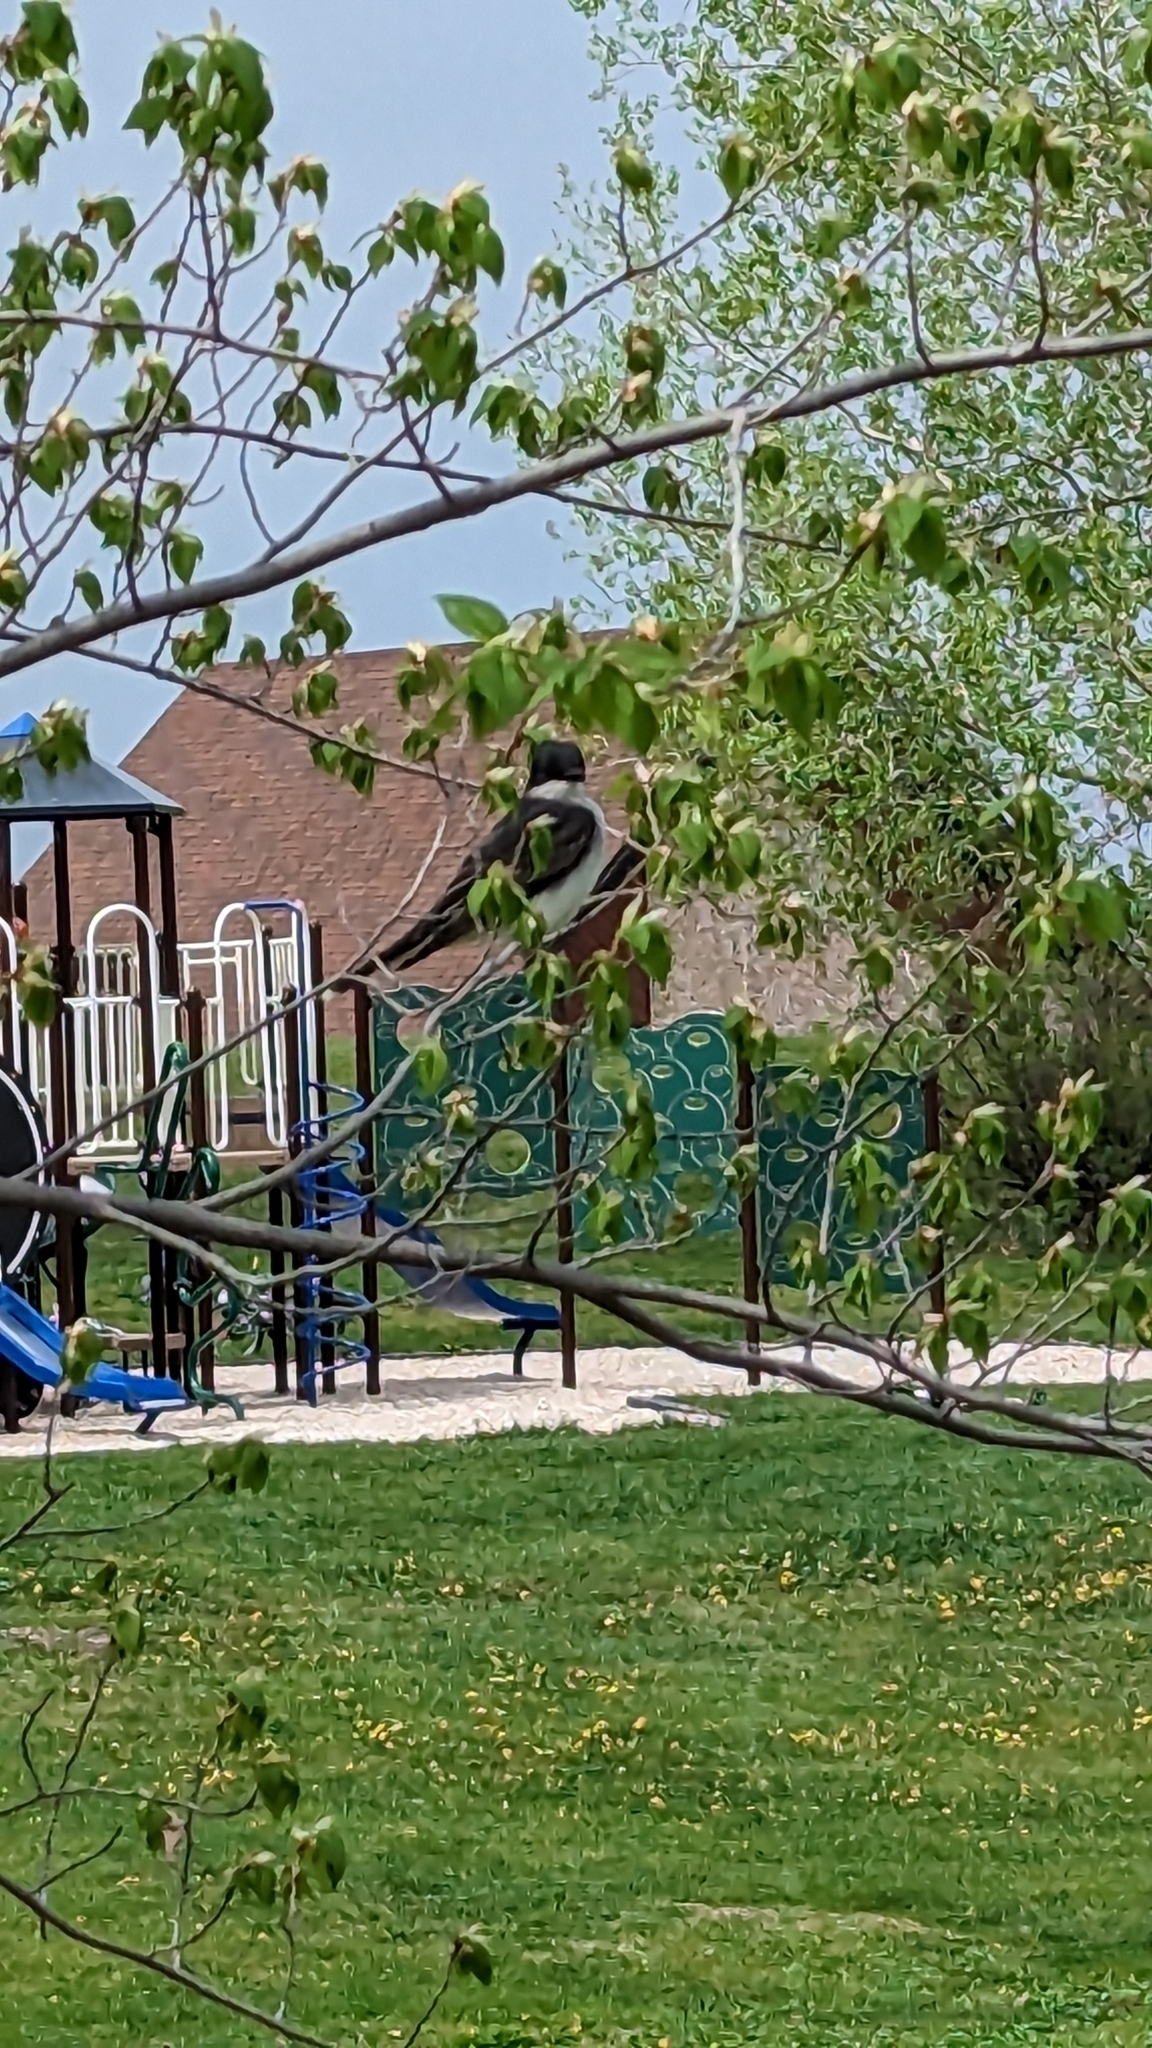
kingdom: Animalia
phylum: Chordata
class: Aves
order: Passeriformes
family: Tyrannidae
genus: Tyrannus
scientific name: Tyrannus tyrannus
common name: Eastern kingbird
